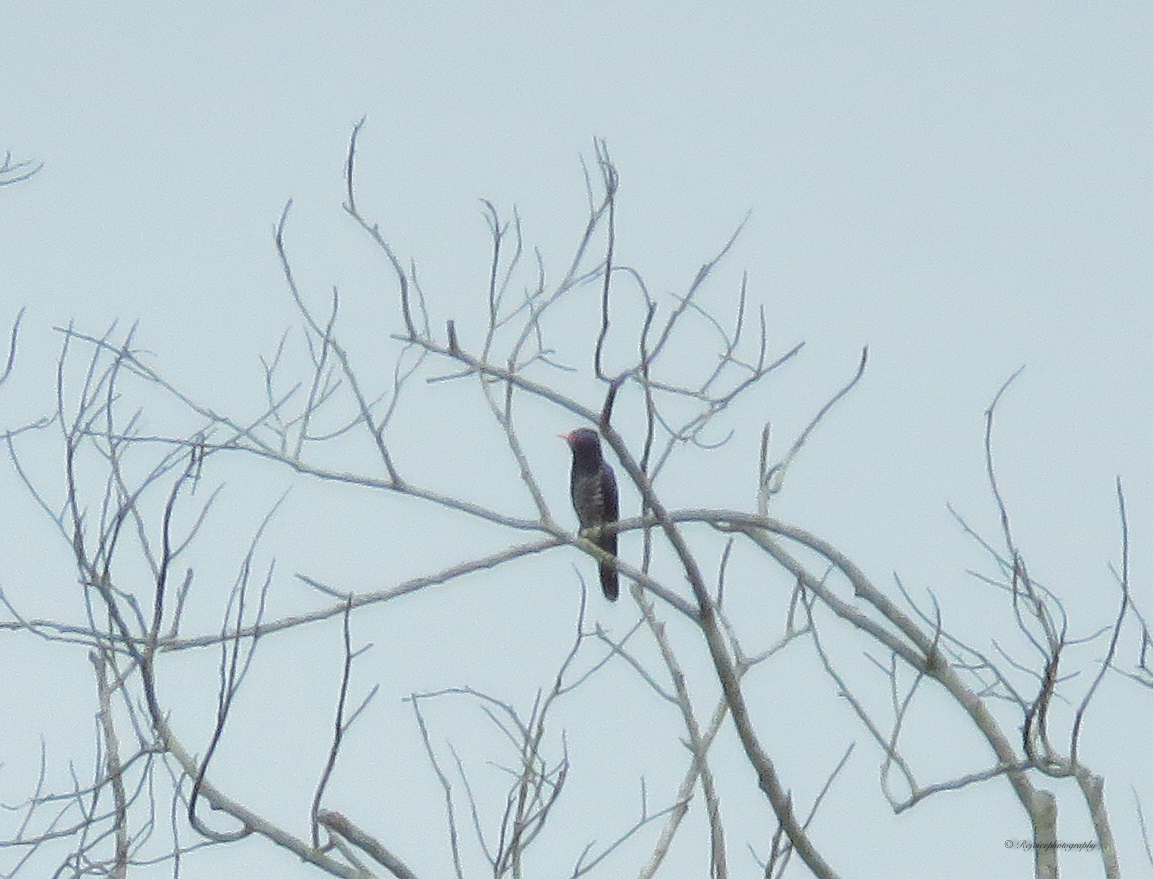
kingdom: Animalia
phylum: Chordata
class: Aves
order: Cuculiformes
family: Cuculidae
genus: Chrysococcyx
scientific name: Chrysococcyx xanthorhynchus
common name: Violet cuckoo
